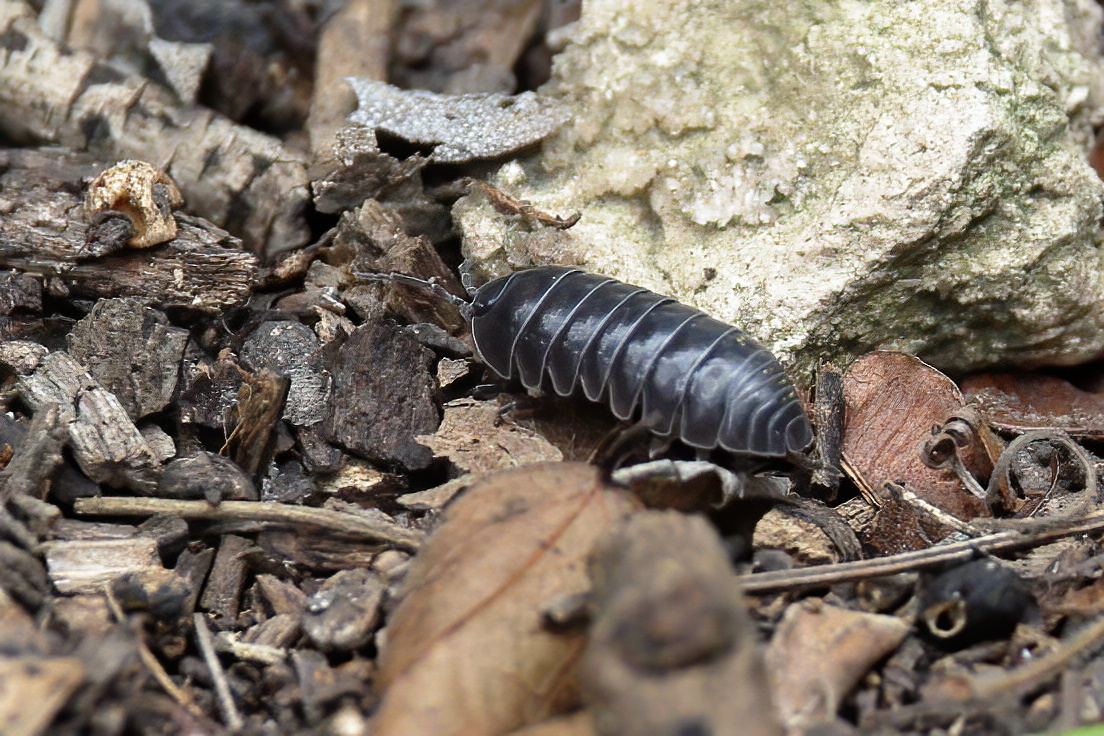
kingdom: Animalia
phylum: Arthropoda
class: Malacostraca
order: Isopoda
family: Armadillidiidae
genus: Armadillidium
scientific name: Armadillidium vulgare
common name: Common pill woodlouse
